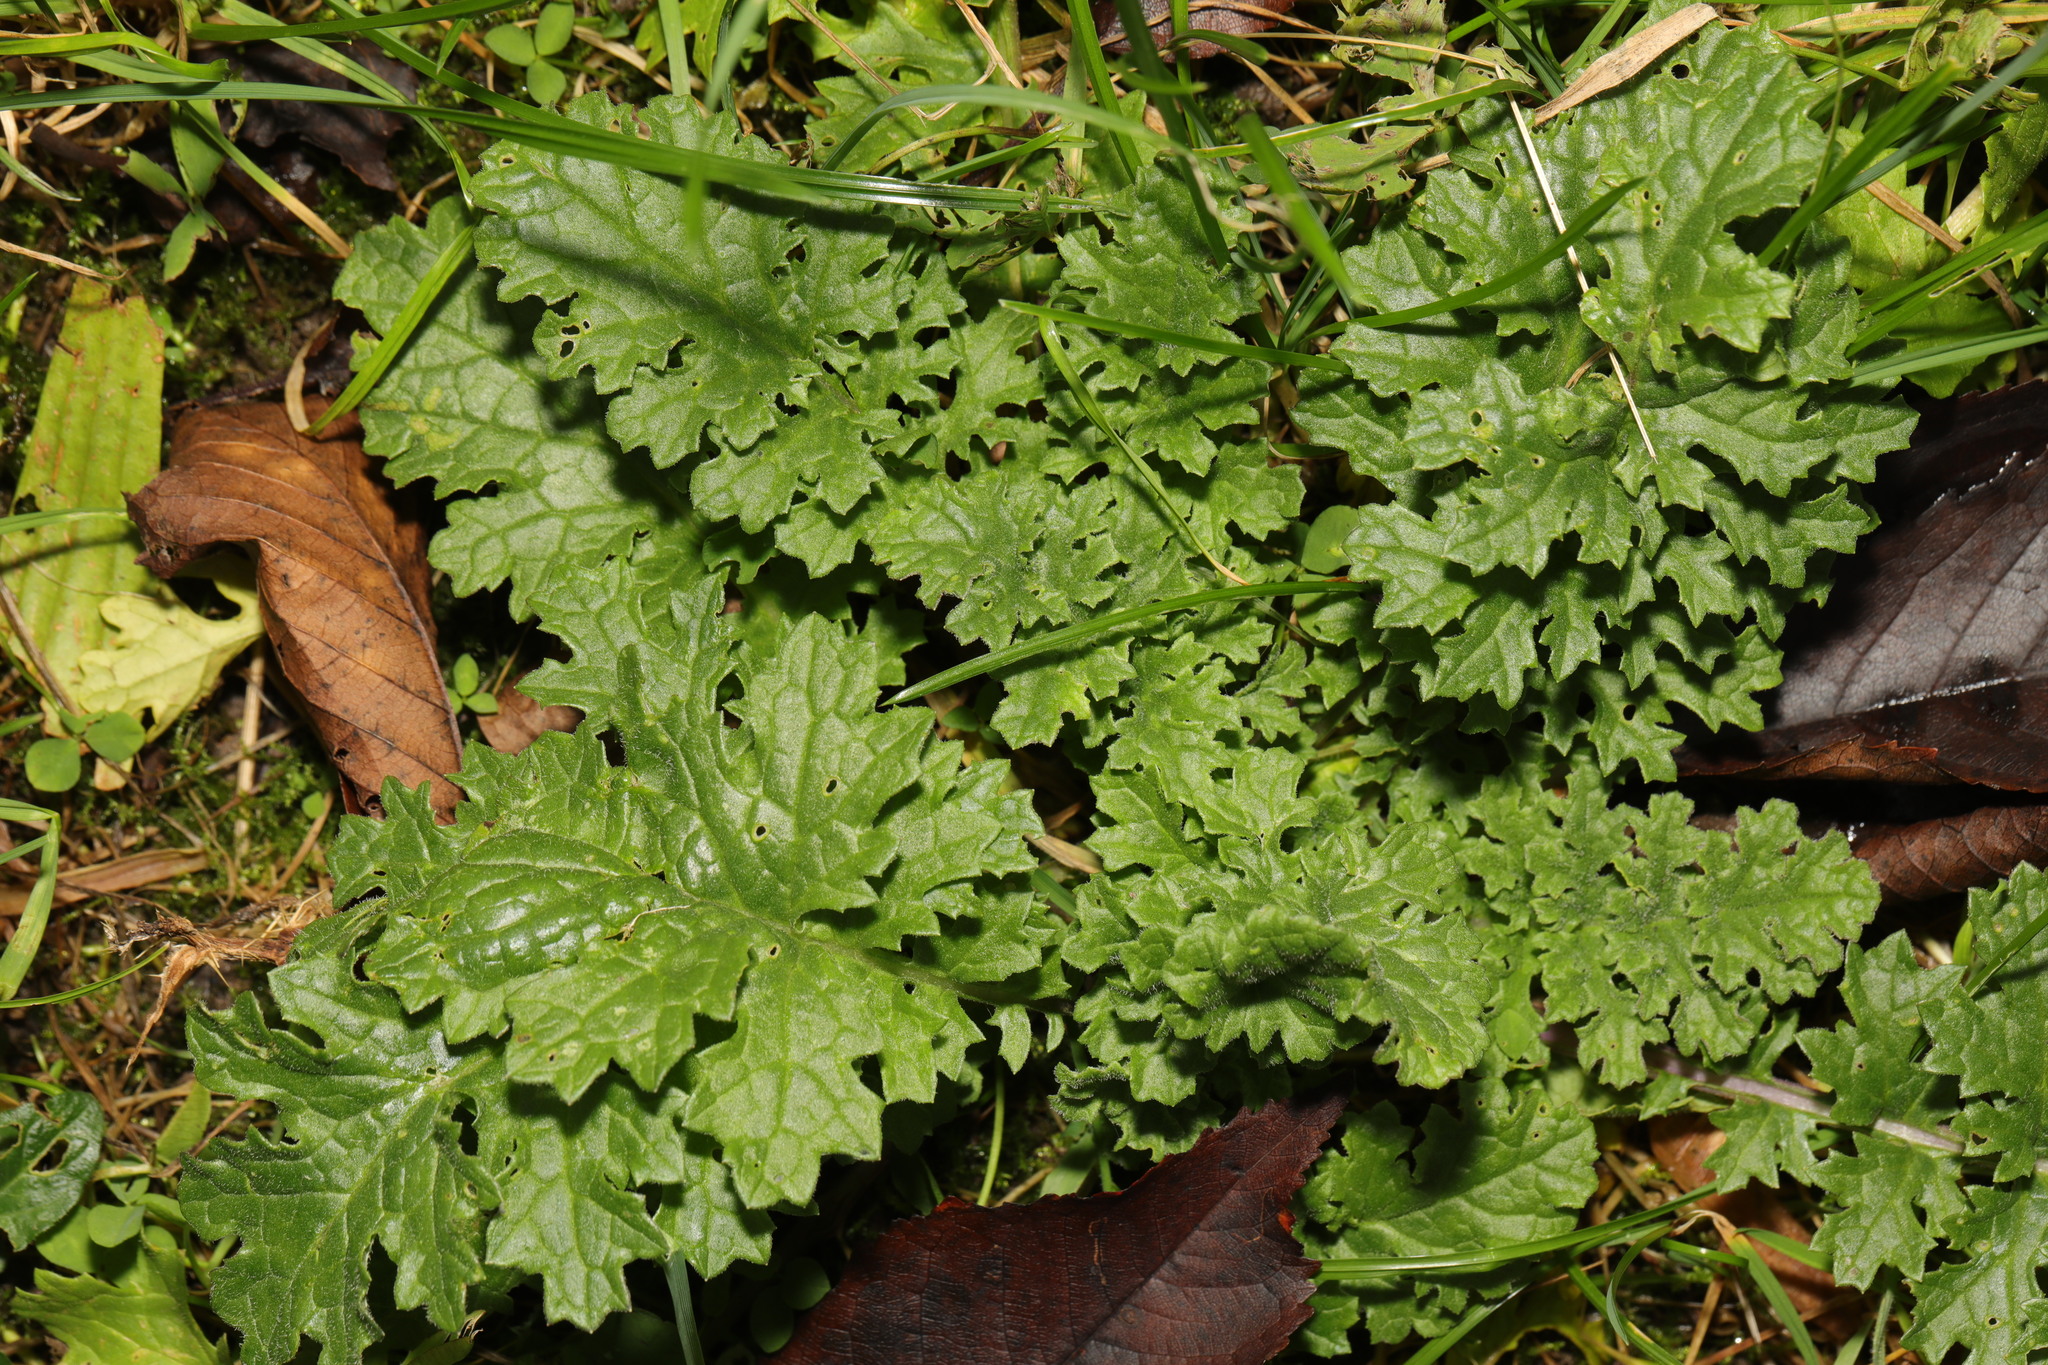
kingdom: Plantae
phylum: Tracheophyta
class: Magnoliopsida
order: Asterales
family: Asteraceae
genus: Jacobaea
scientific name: Jacobaea vulgaris
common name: Stinking willie
